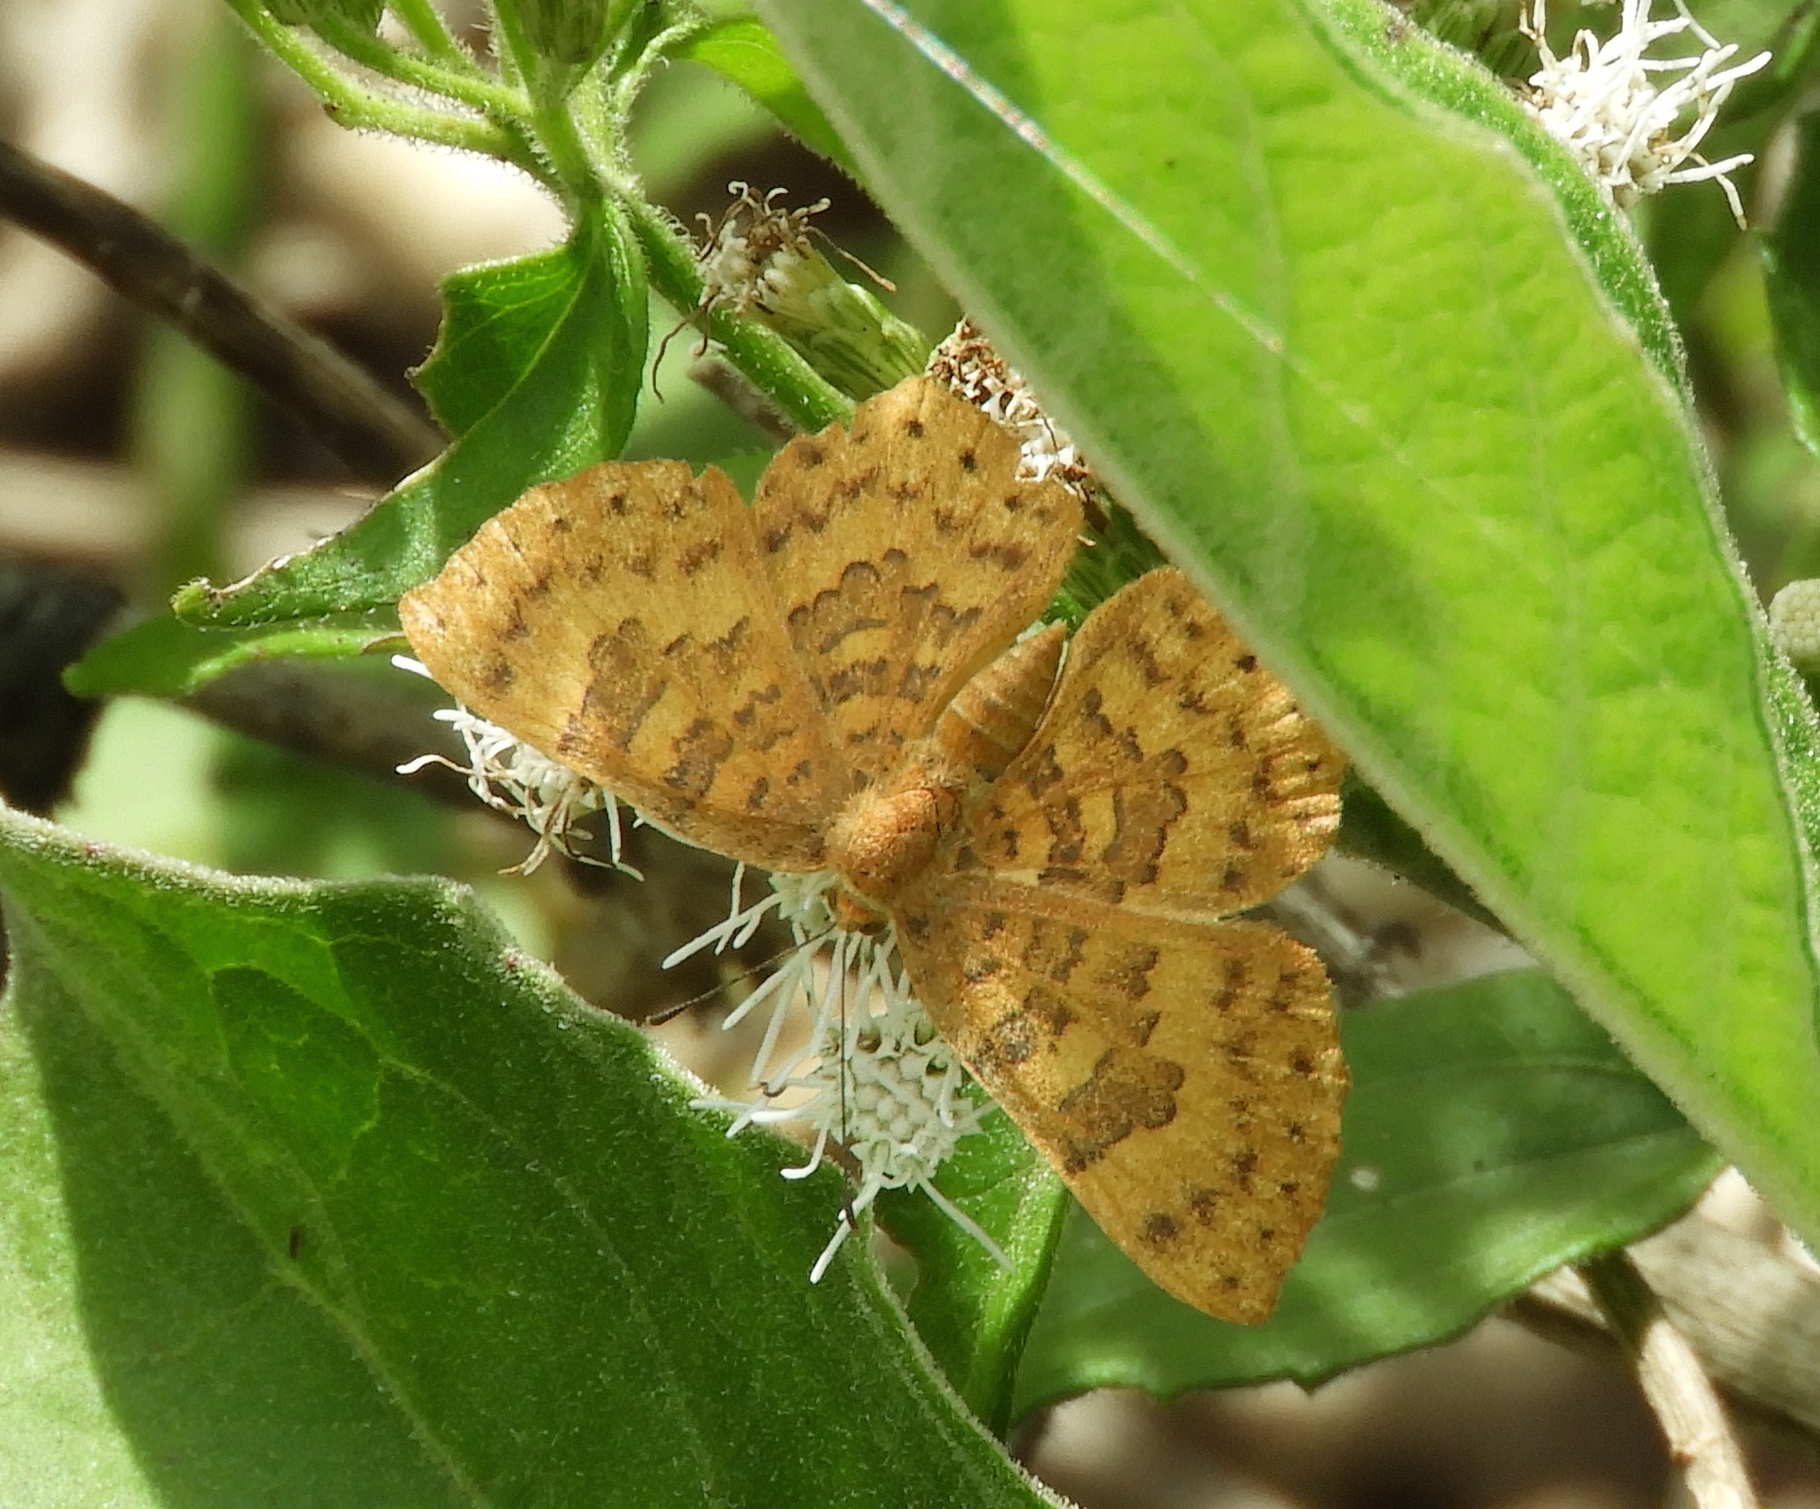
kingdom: Animalia
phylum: Arthropoda
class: Insecta
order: Lepidoptera
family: Lycaenidae
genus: Emesis
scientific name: Emesis tenedia
